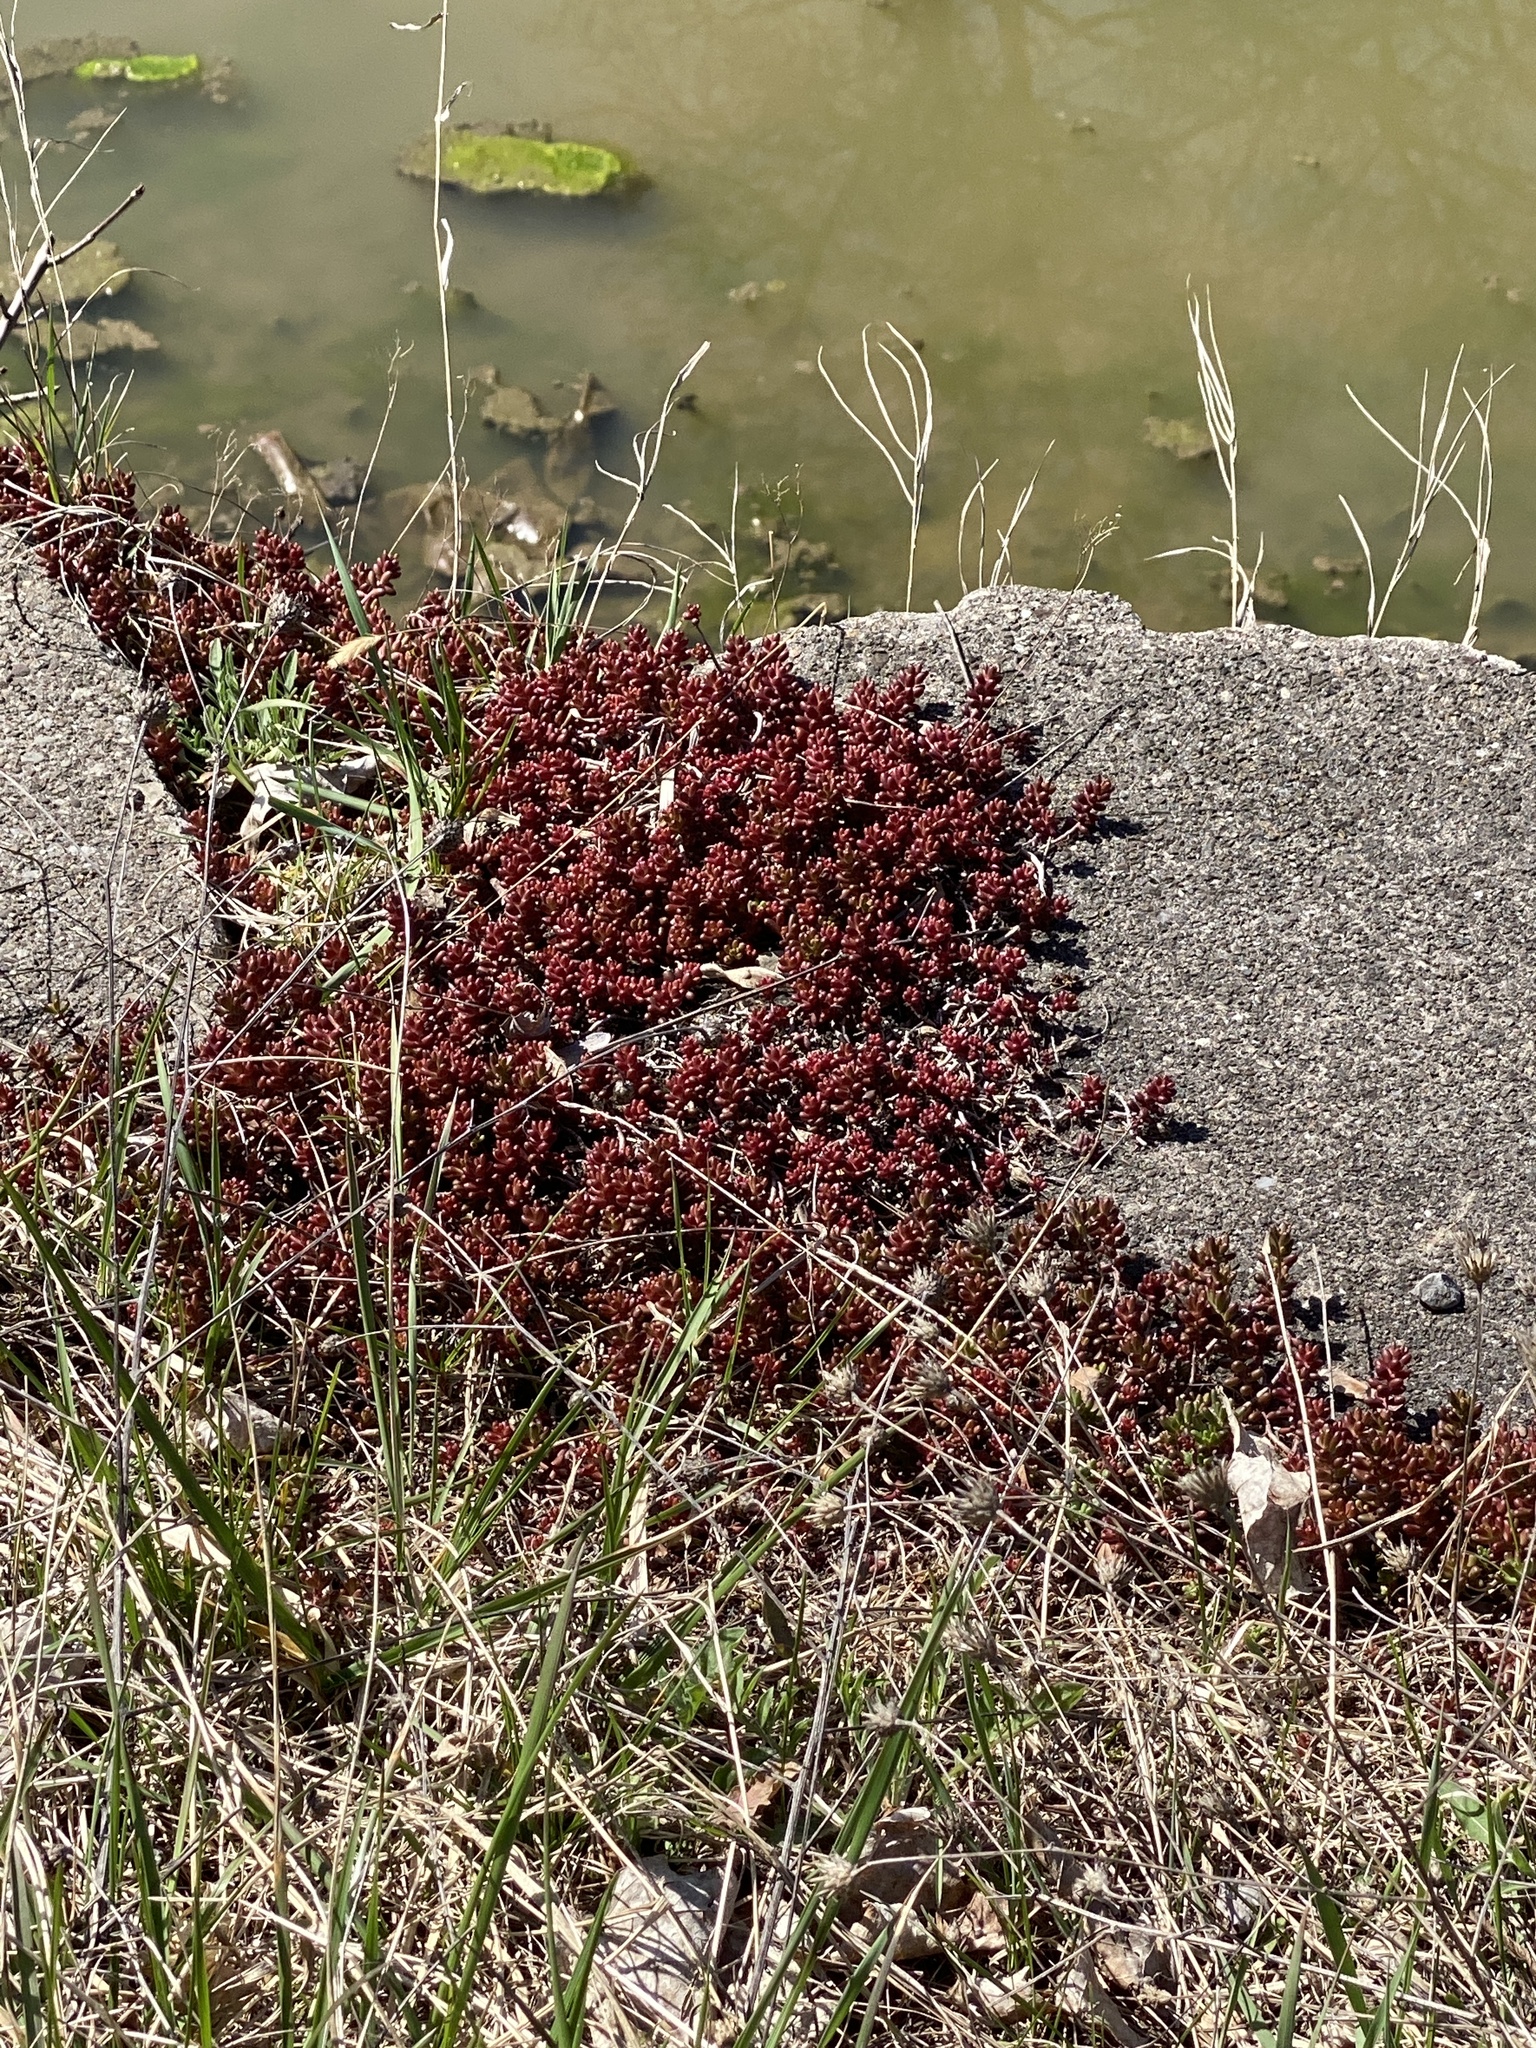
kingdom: Plantae
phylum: Tracheophyta
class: Magnoliopsida
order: Saxifragales
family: Crassulaceae
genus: Sedum
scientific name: Sedum album
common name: White stonecrop
